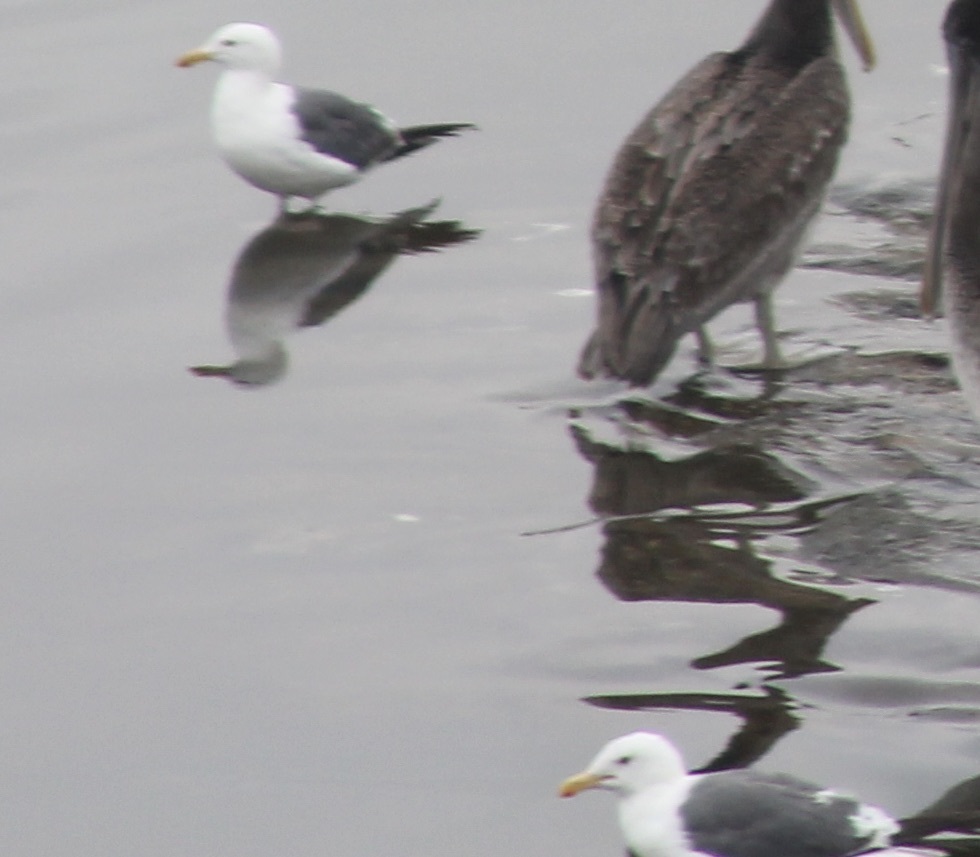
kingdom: Animalia
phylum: Chordata
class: Aves
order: Charadriiformes
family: Laridae
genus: Larus
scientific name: Larus occidentalis
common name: Western gull
